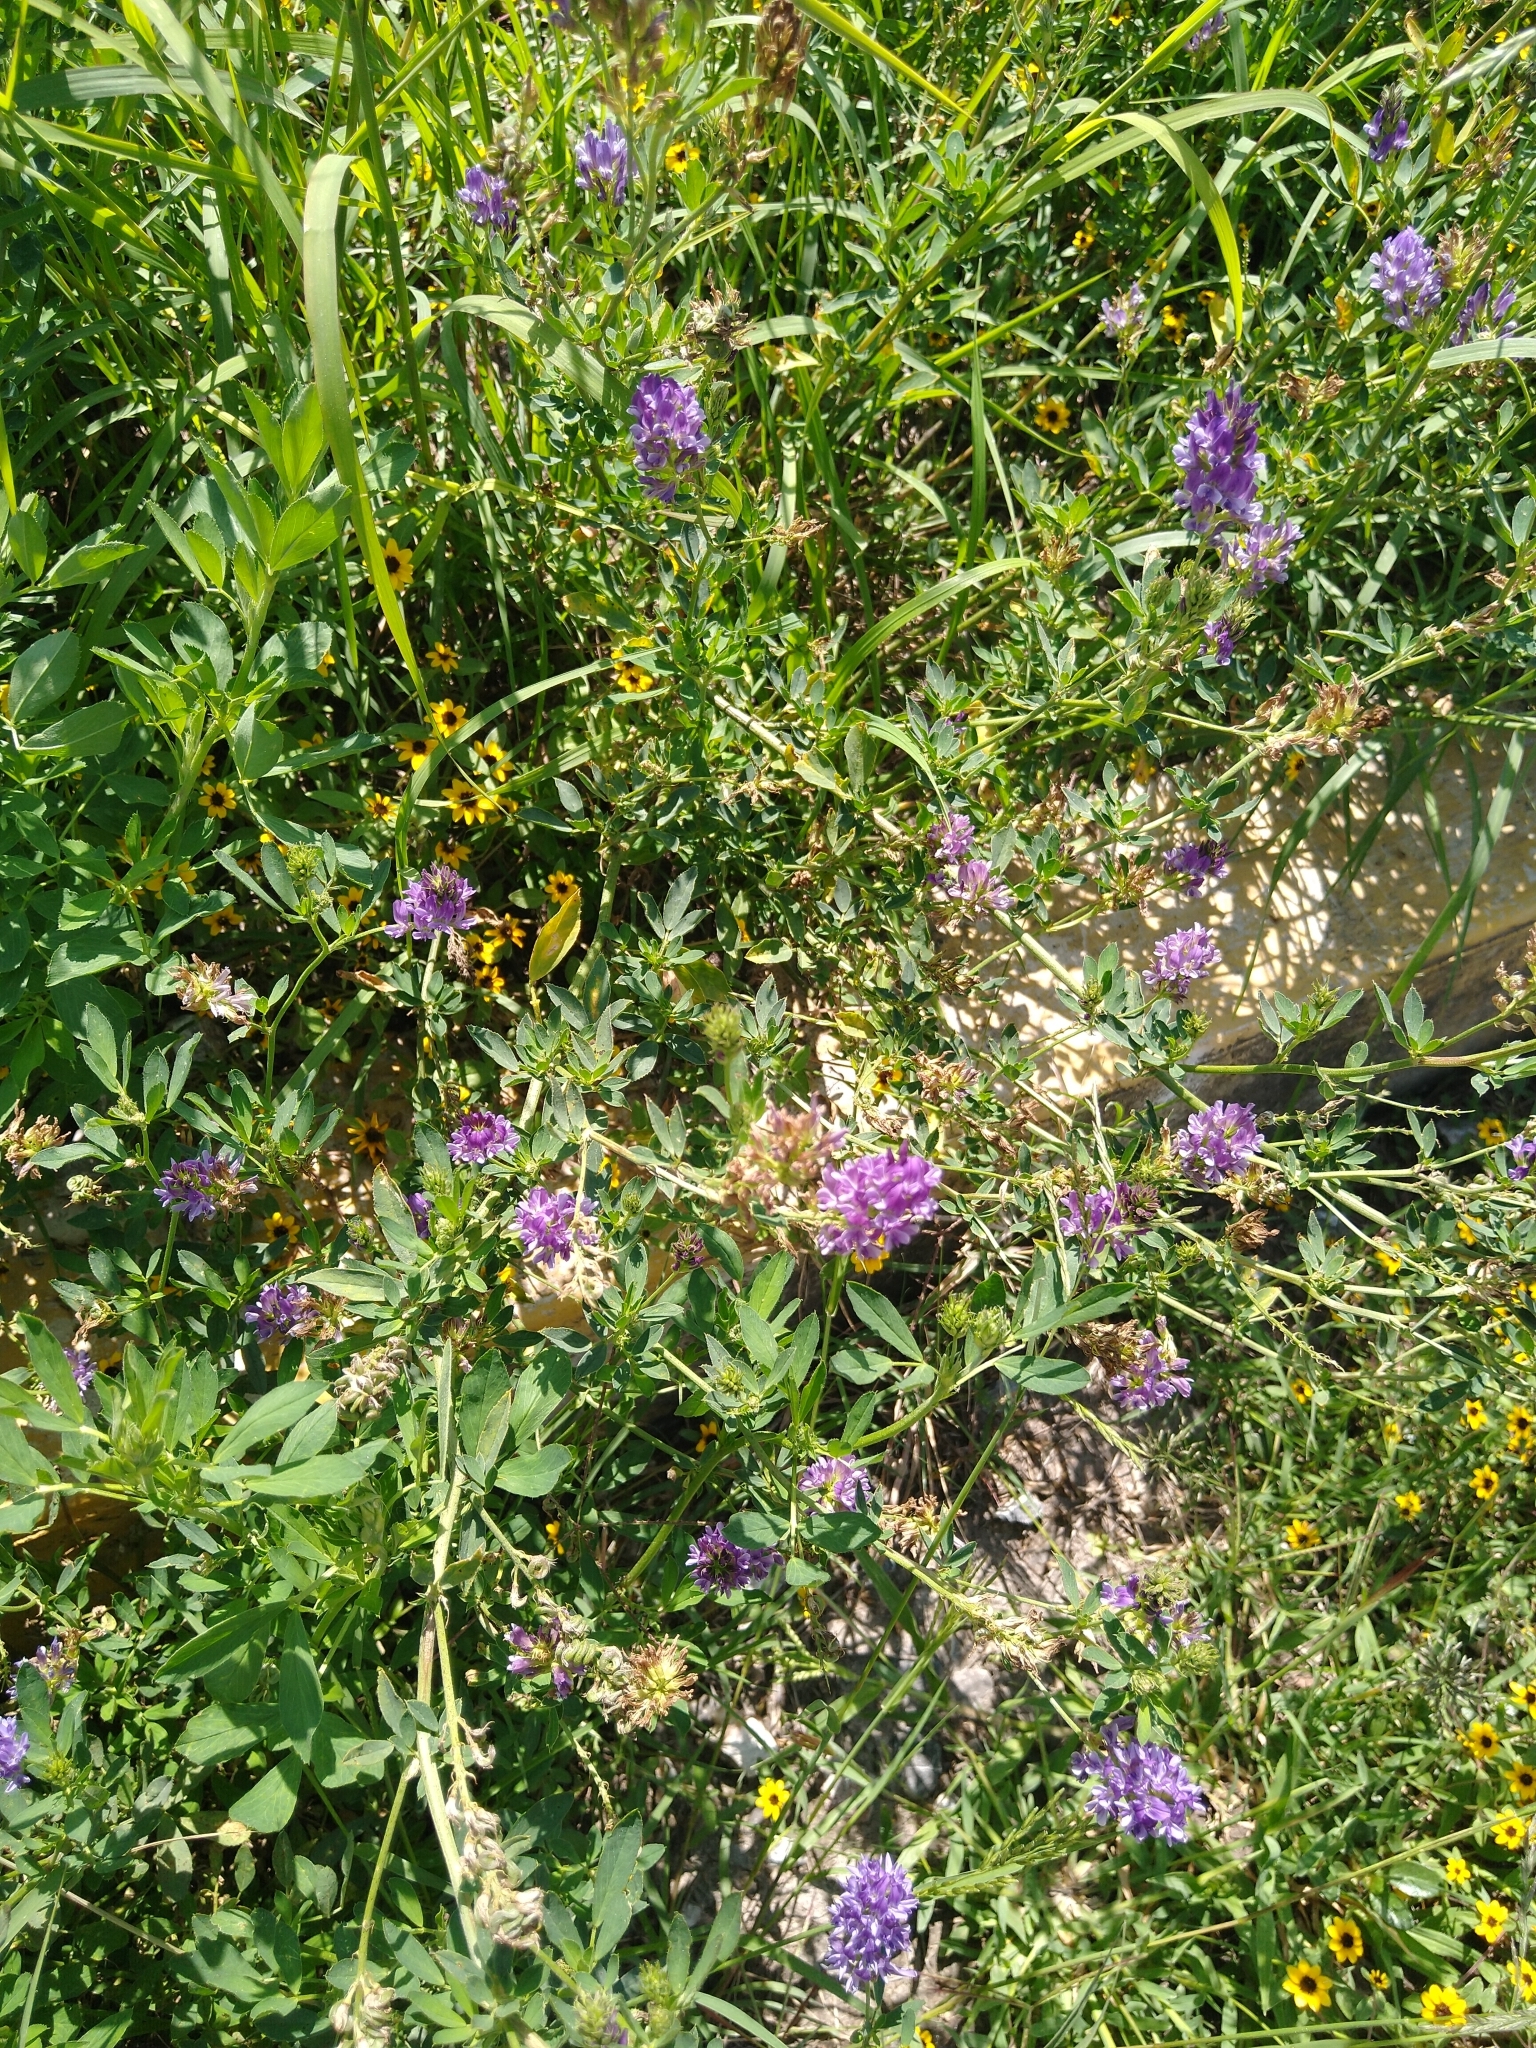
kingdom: Plantae
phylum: Tracheophyta
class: Magnoliopsida
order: Fabales
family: Fabaceae
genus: Medicago
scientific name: Medicago sativa
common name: Alfalfa
